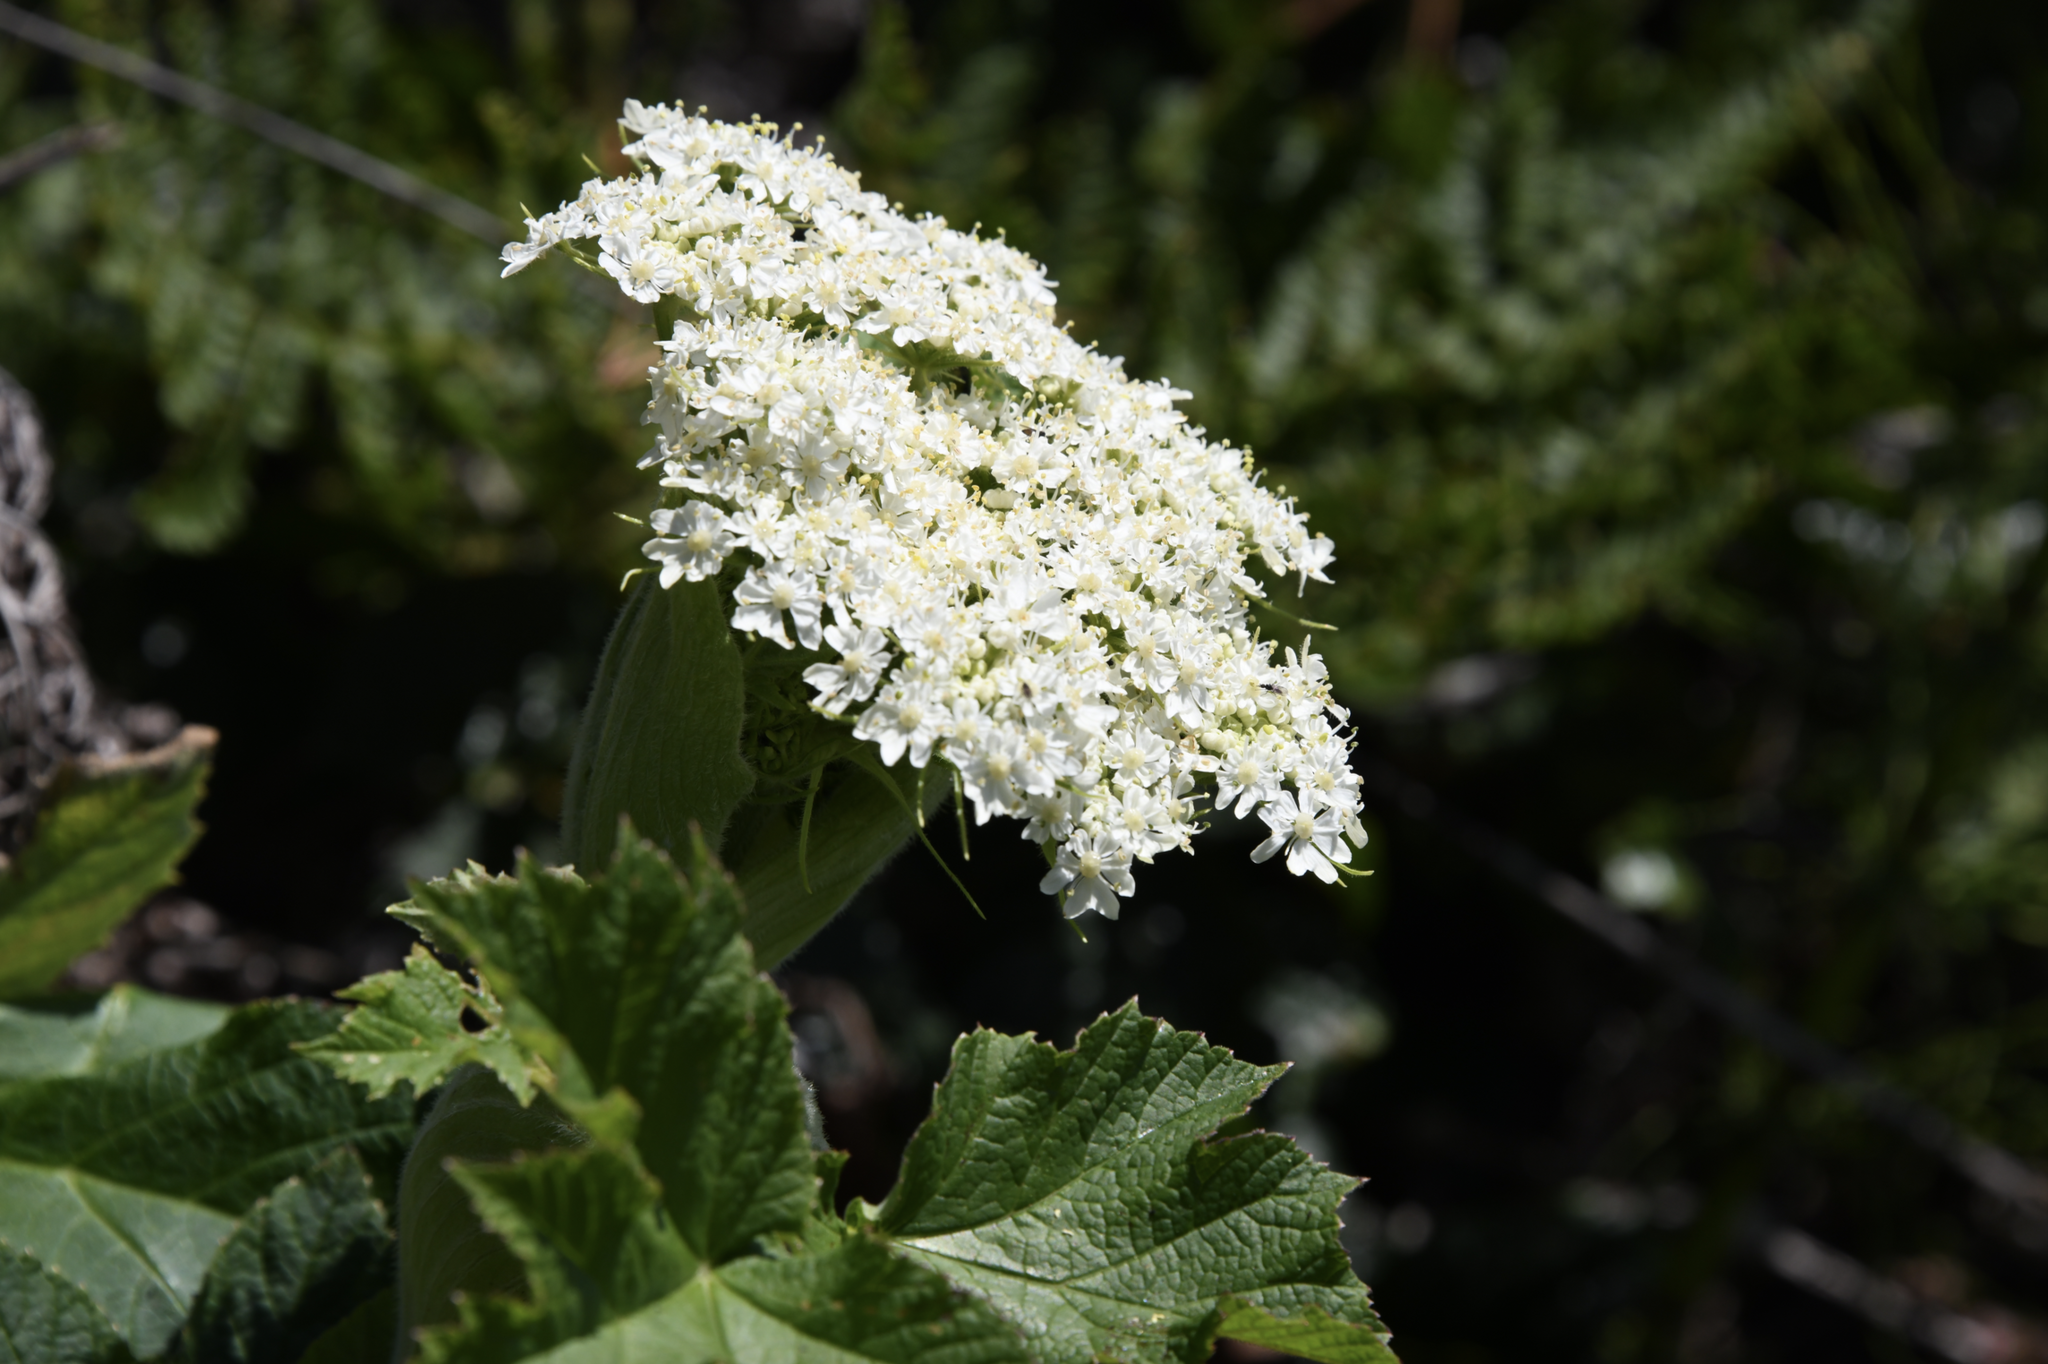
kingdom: Plantae
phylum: Tracheophyta
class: Magnoliopsida
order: Apiales
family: Apiaceae
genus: Heracleum
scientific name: Heracleum maximum
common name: American cow parsnip
